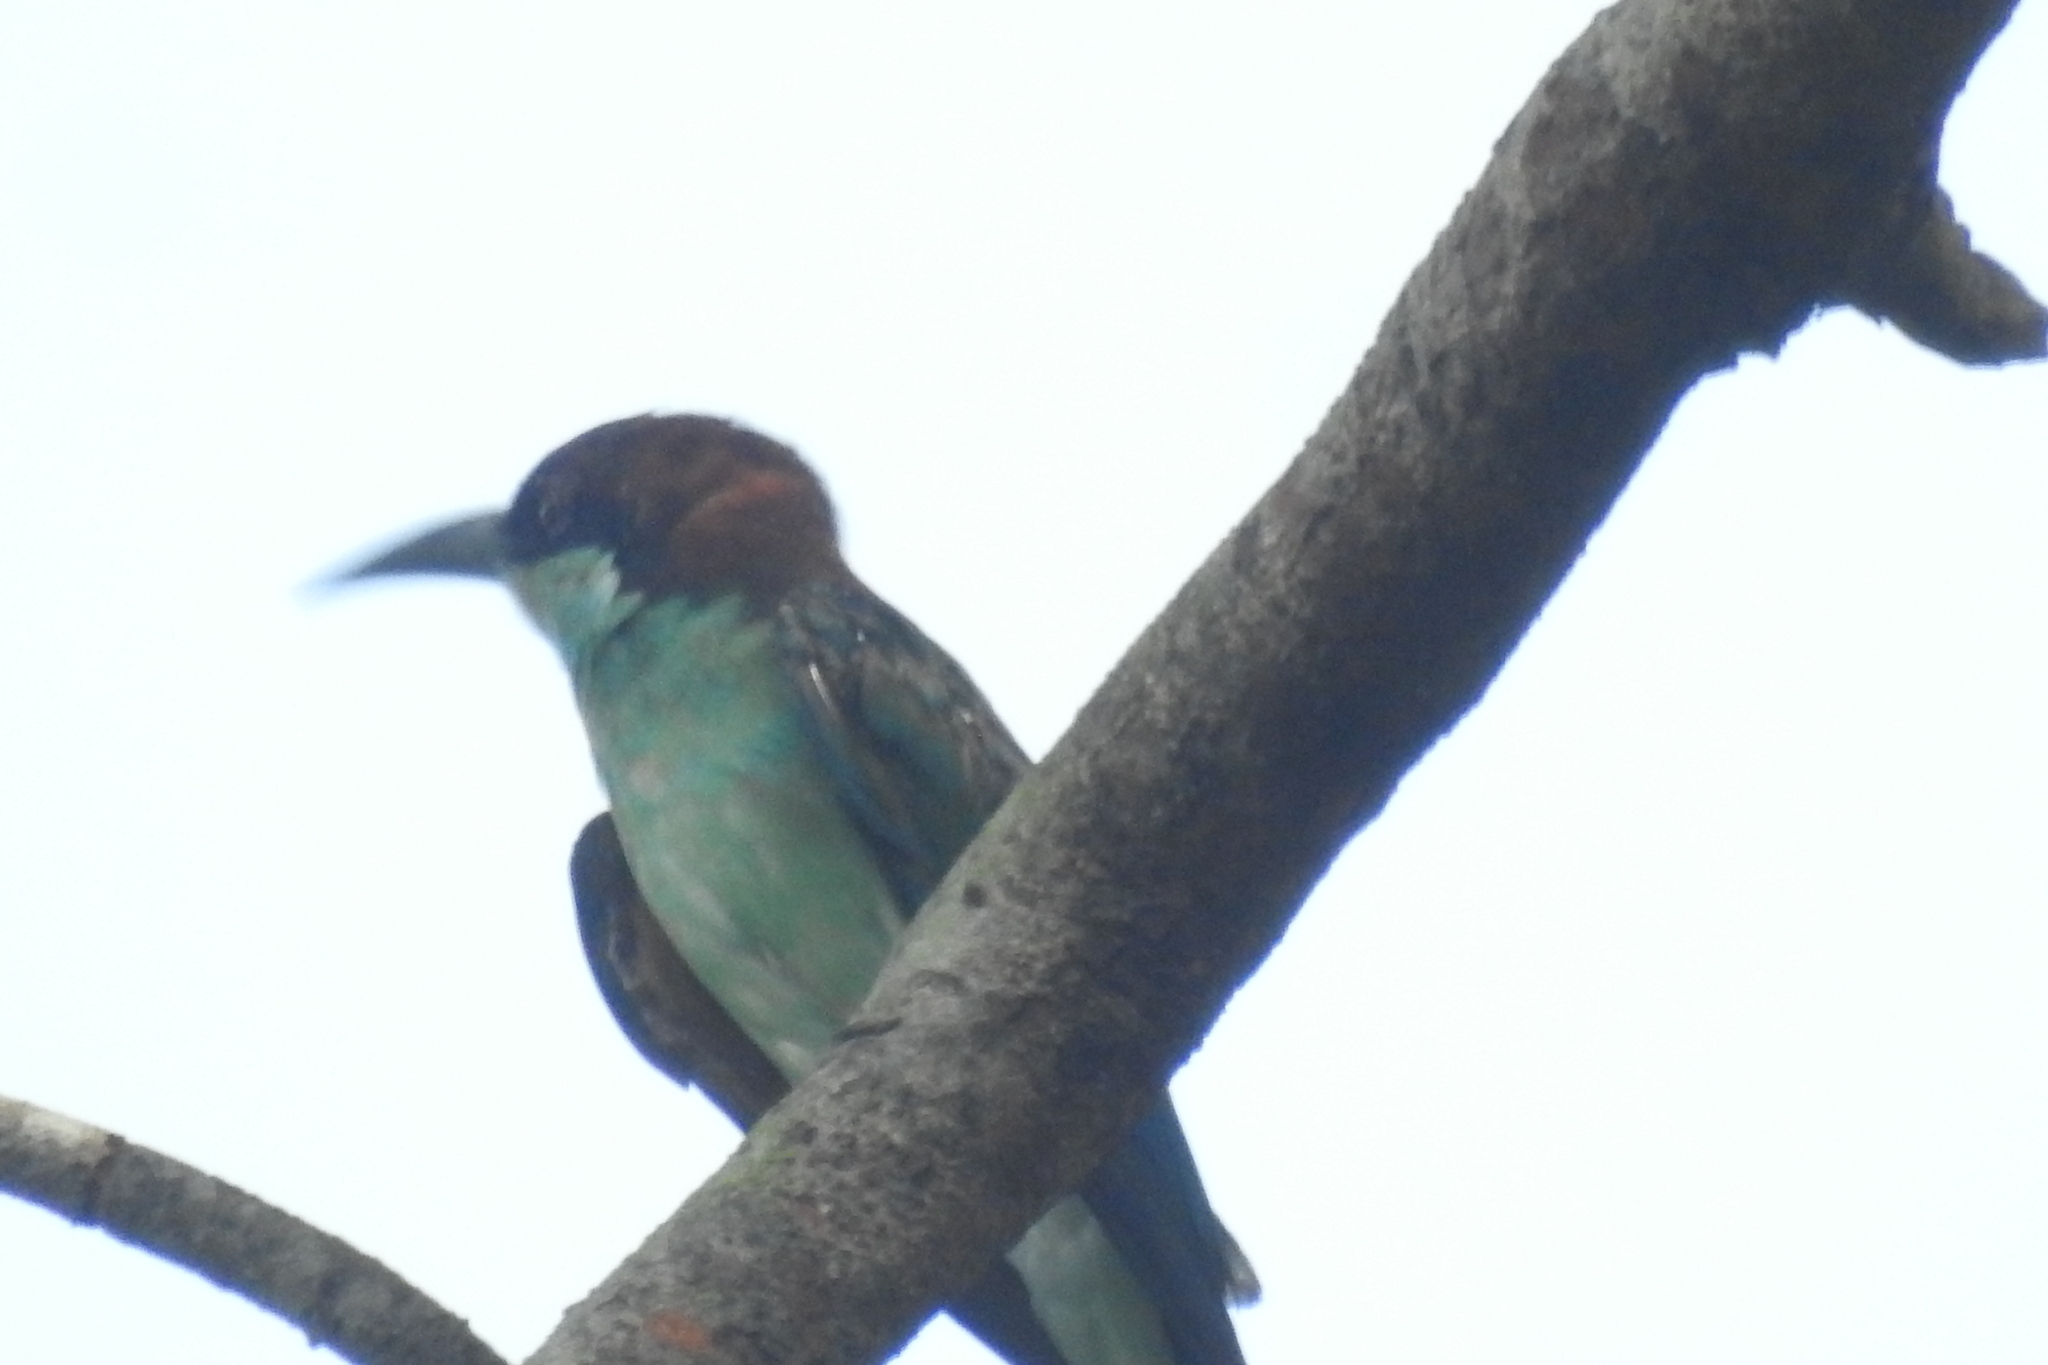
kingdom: Animalia
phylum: Chordata
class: Aves
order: Coraciiformes
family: Meropidae
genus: Merops
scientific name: Merops viridis
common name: Blue-throated bee-eater
